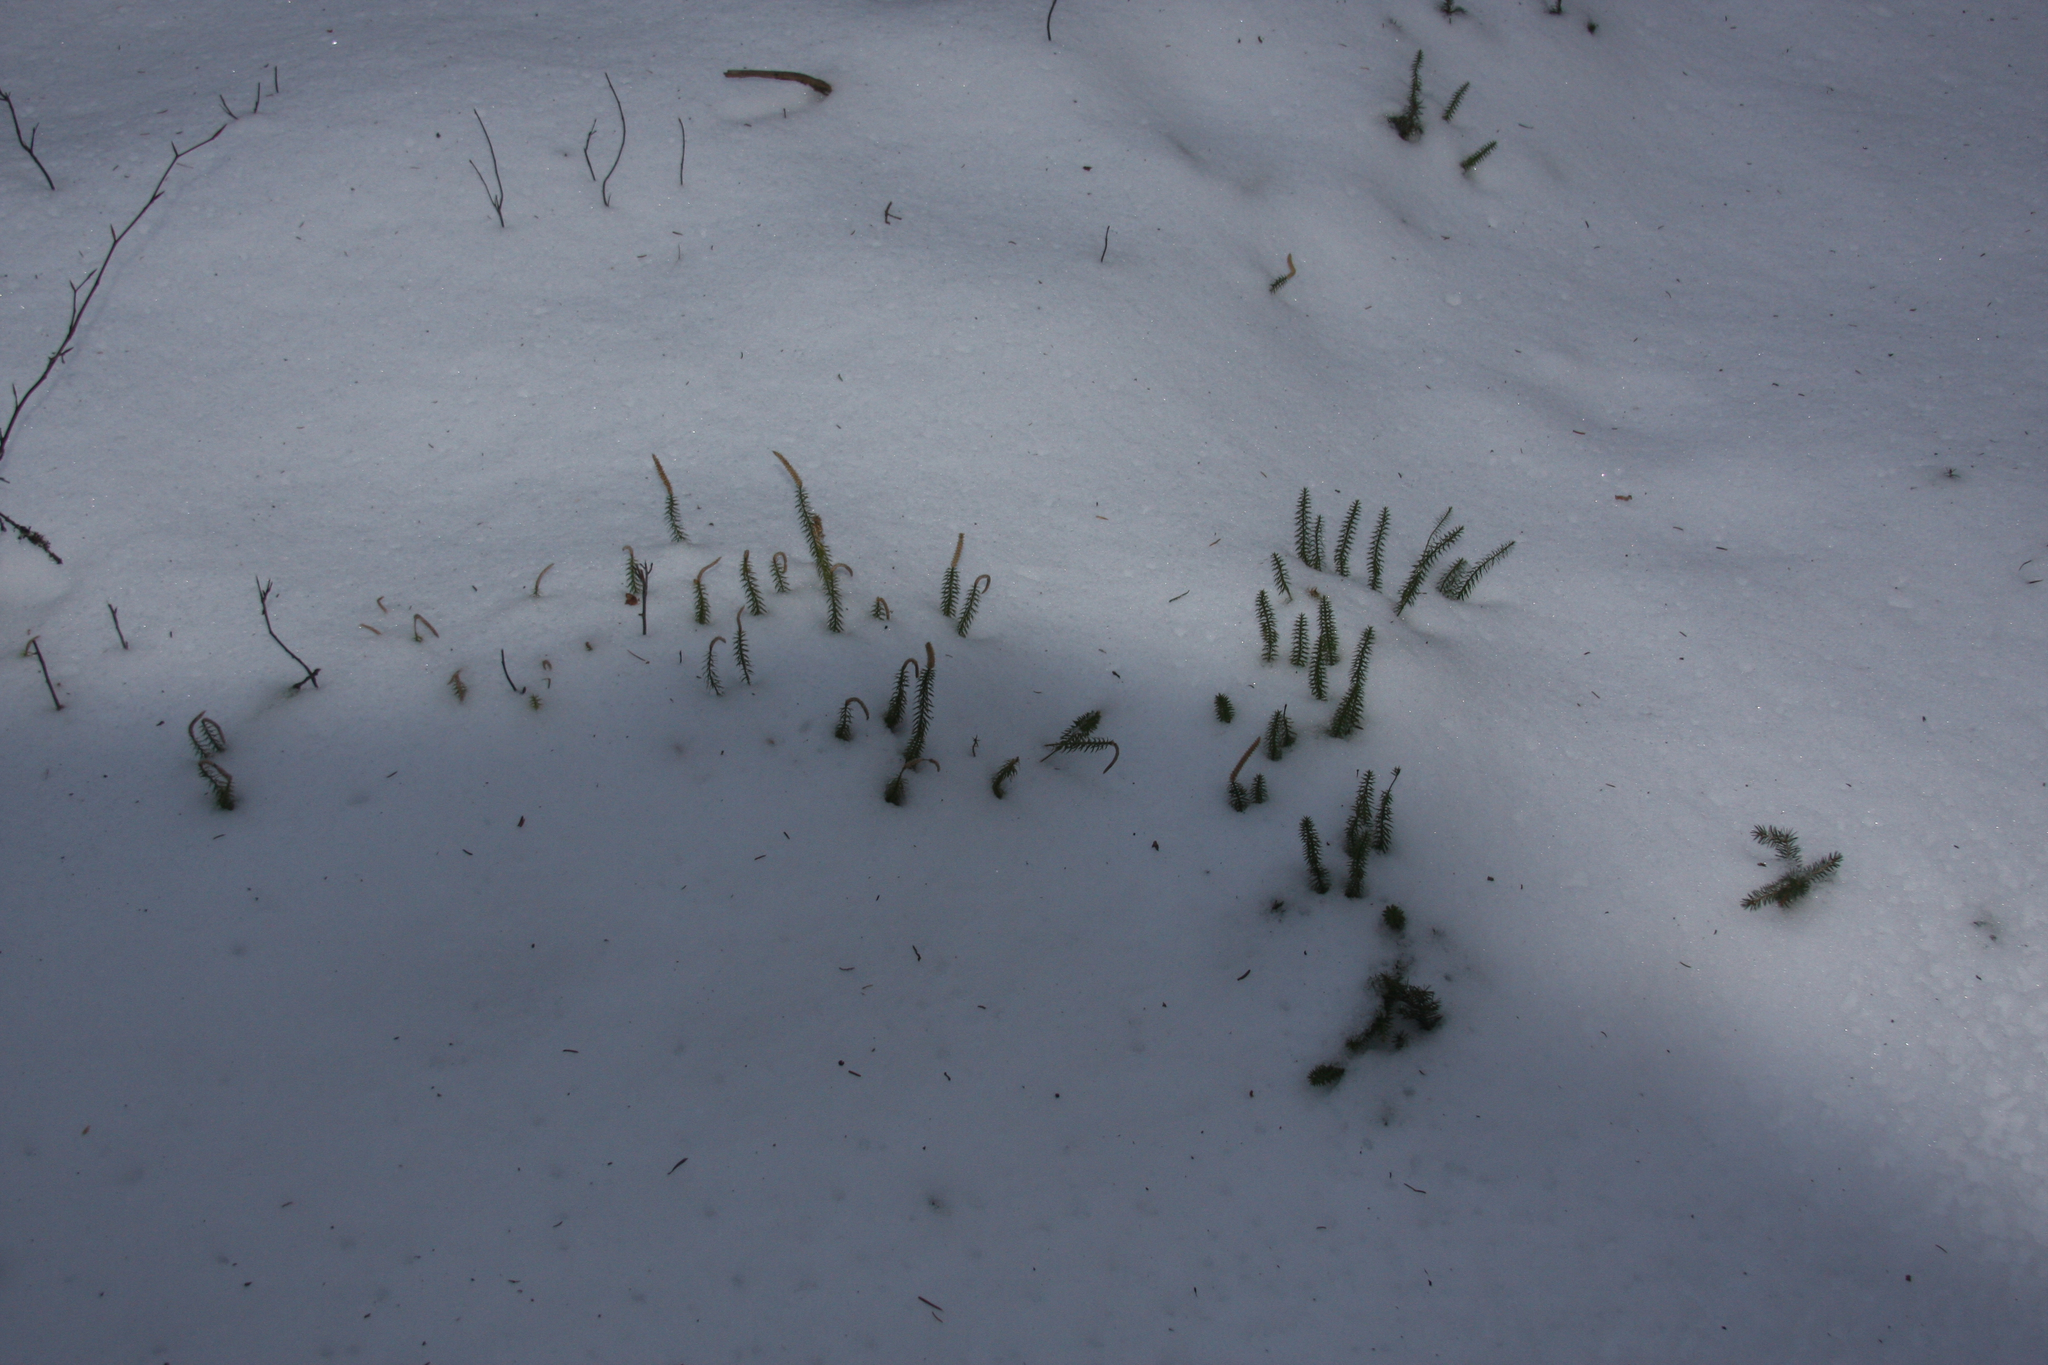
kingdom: Plantae
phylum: Tracheophyta
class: Lycopodiopsida
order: Lycopodiales
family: Lycopodiaceae
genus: Spinulum
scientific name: Spinulum annotinum
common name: Interrupted club-moss
